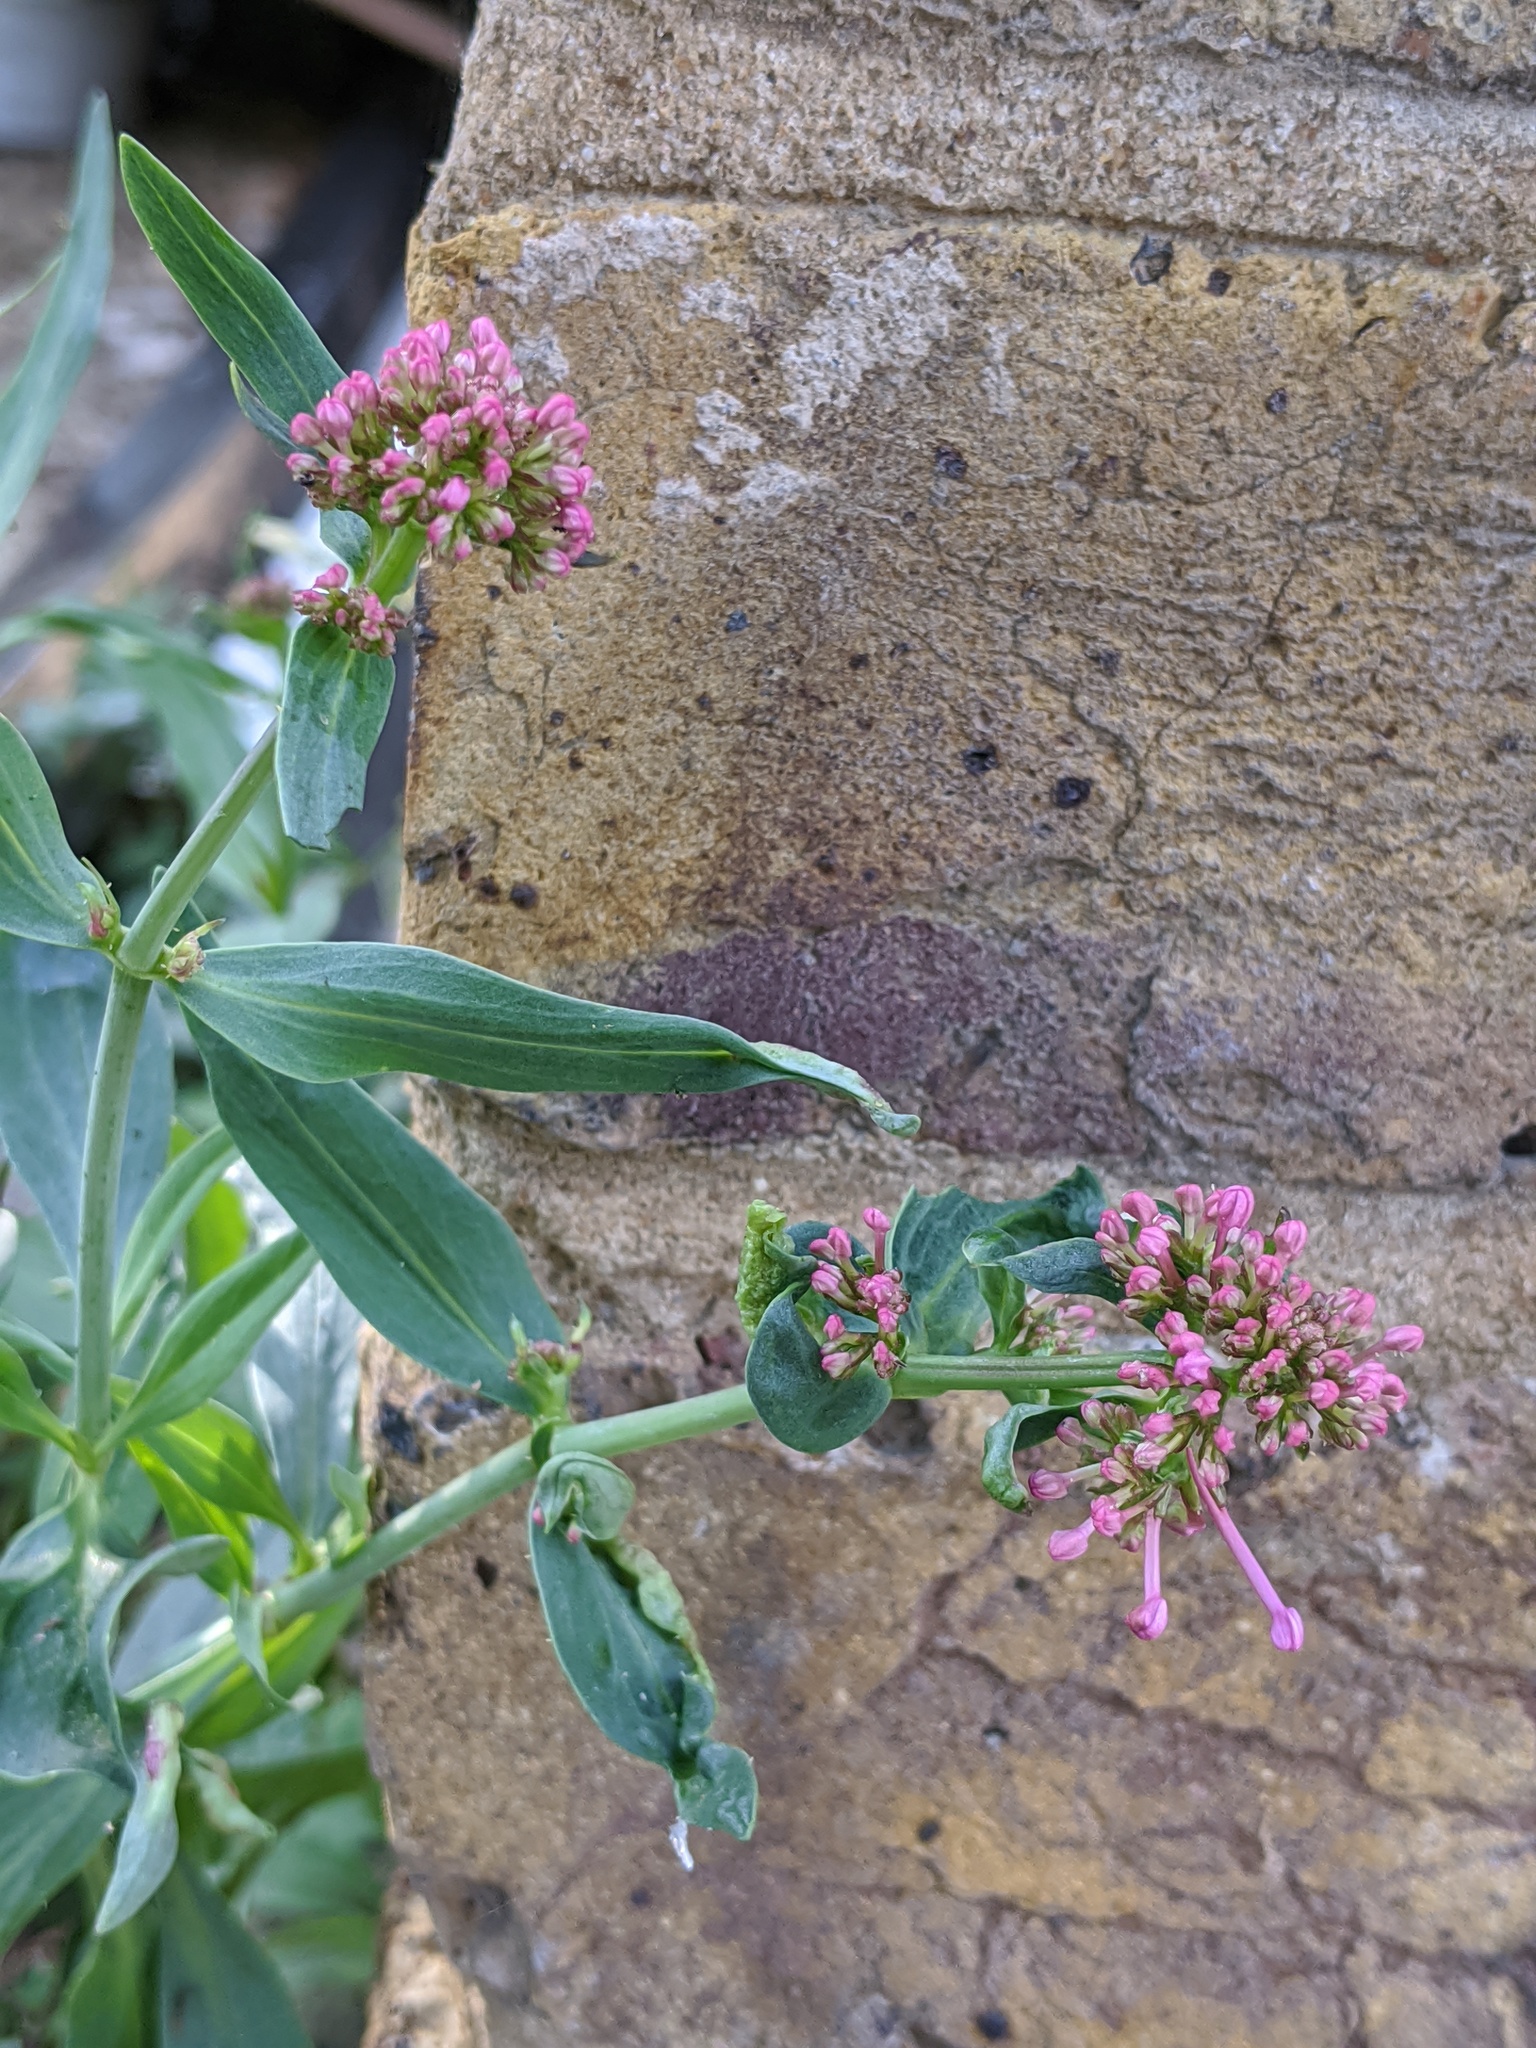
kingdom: Plantae
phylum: Tracheophyta
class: Magnoliopsida
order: Dipsacales
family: Caprifoliaceae
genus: Centranthus
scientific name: Centranthus ruber
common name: Red valerian
